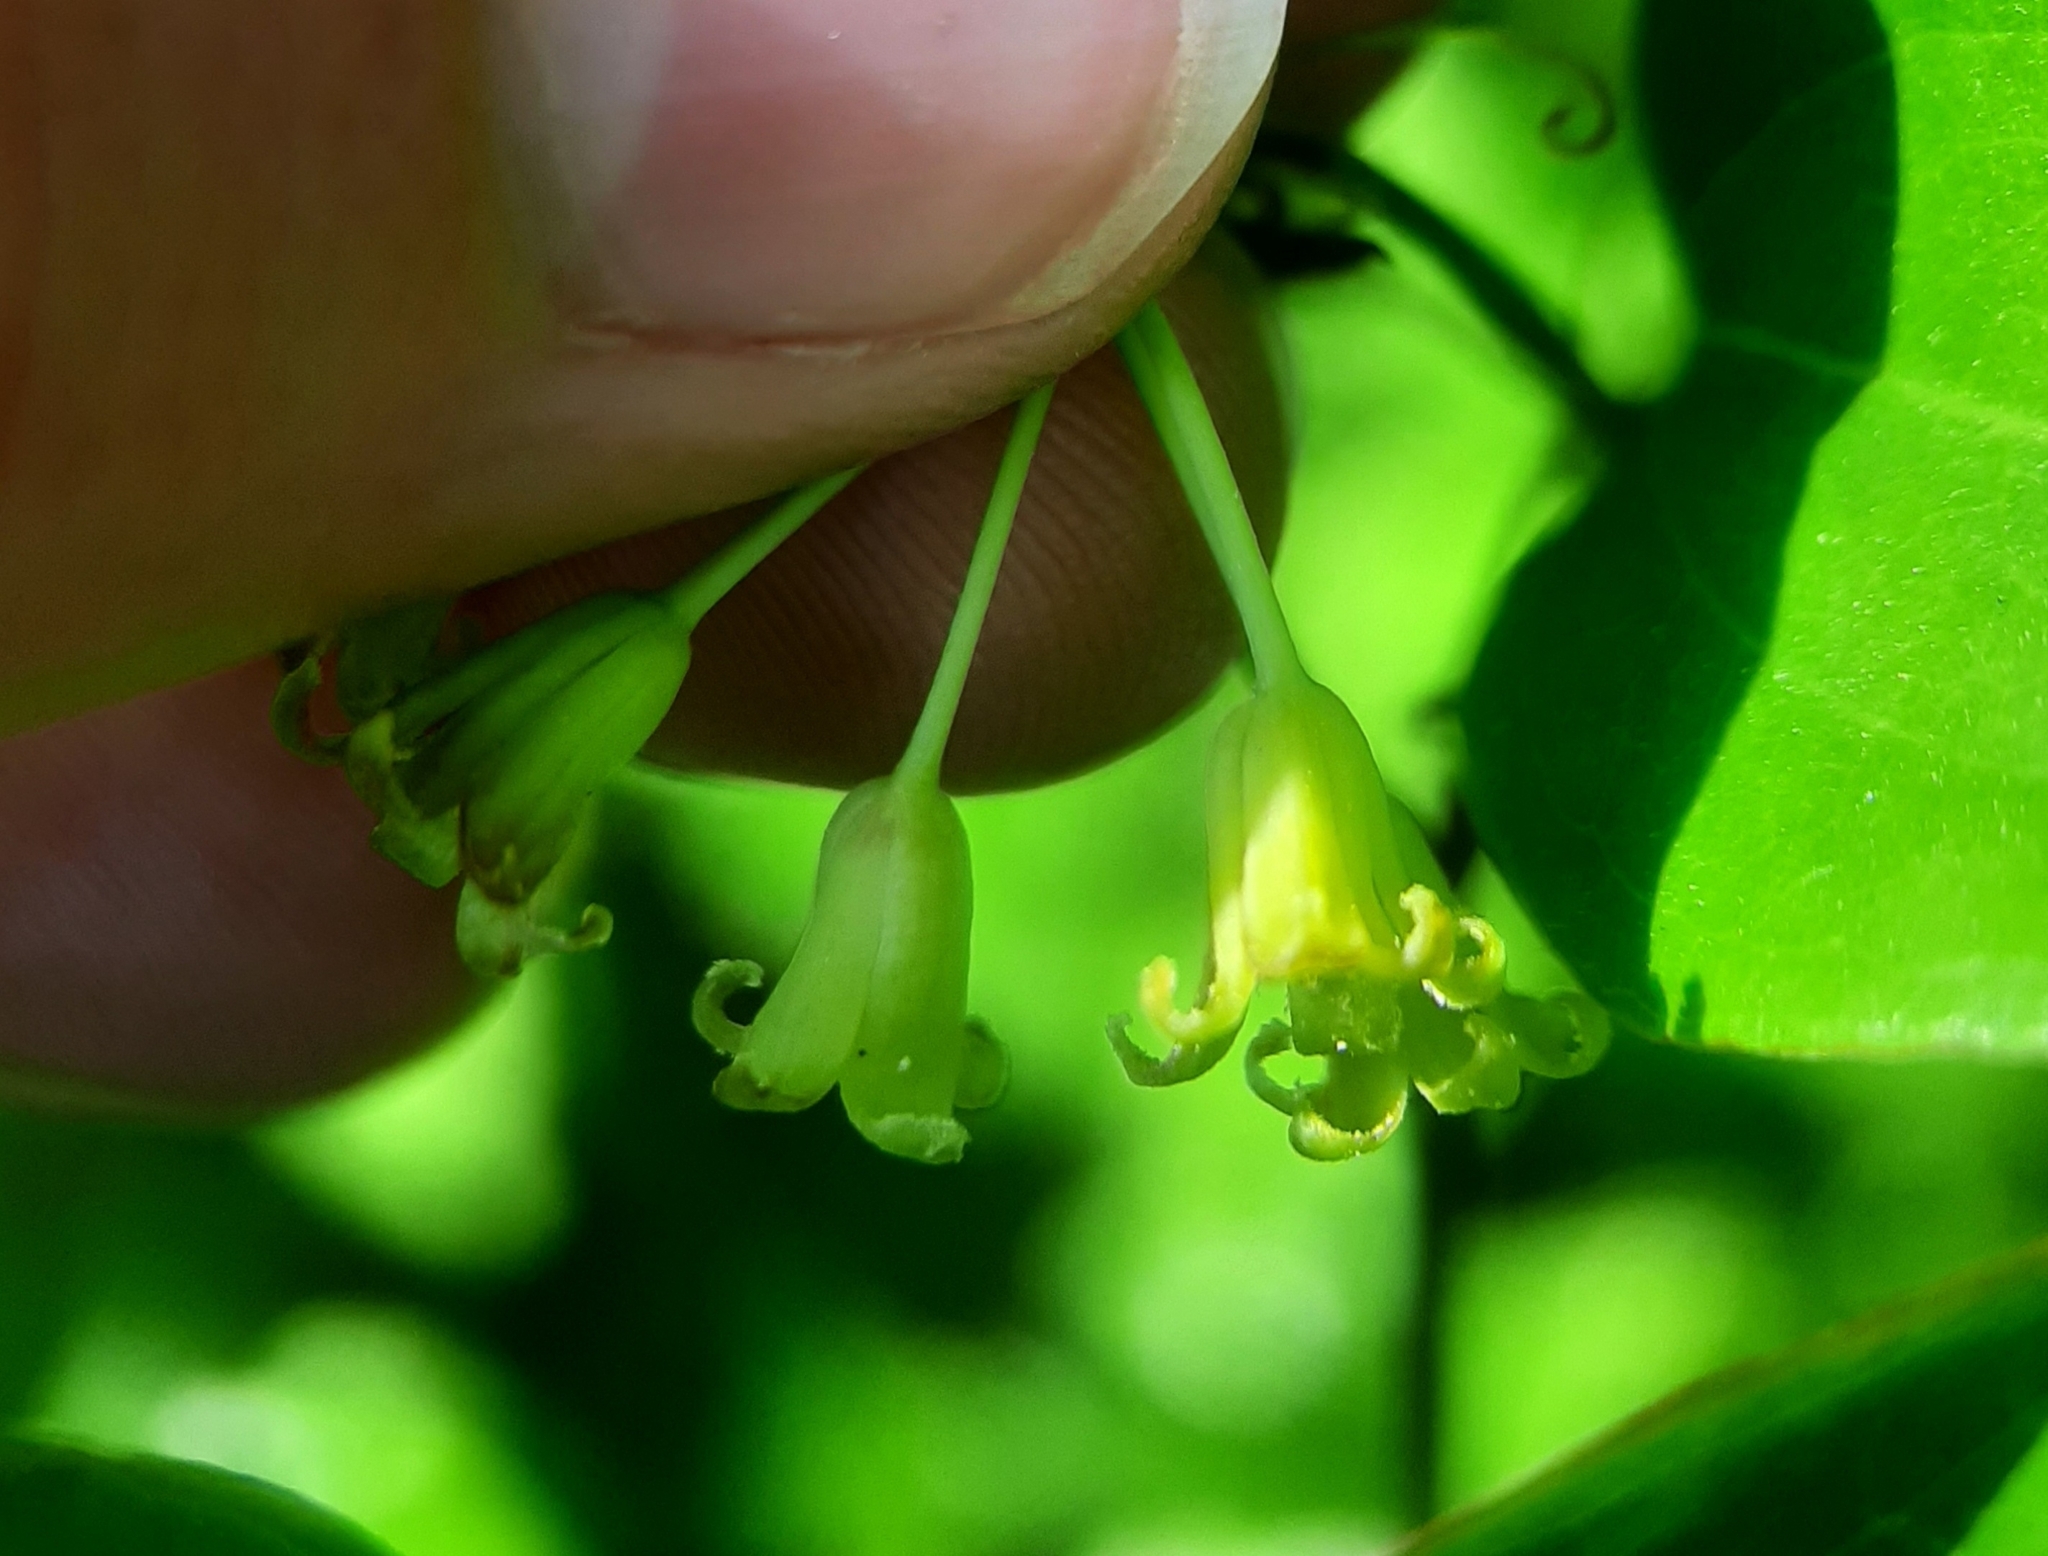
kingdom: Plantae
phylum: Tracheophyta
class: Liliopsida
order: Liliales
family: Smilacaceae
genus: Smilax
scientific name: Smilax rotundifolia
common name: Bullbriar
